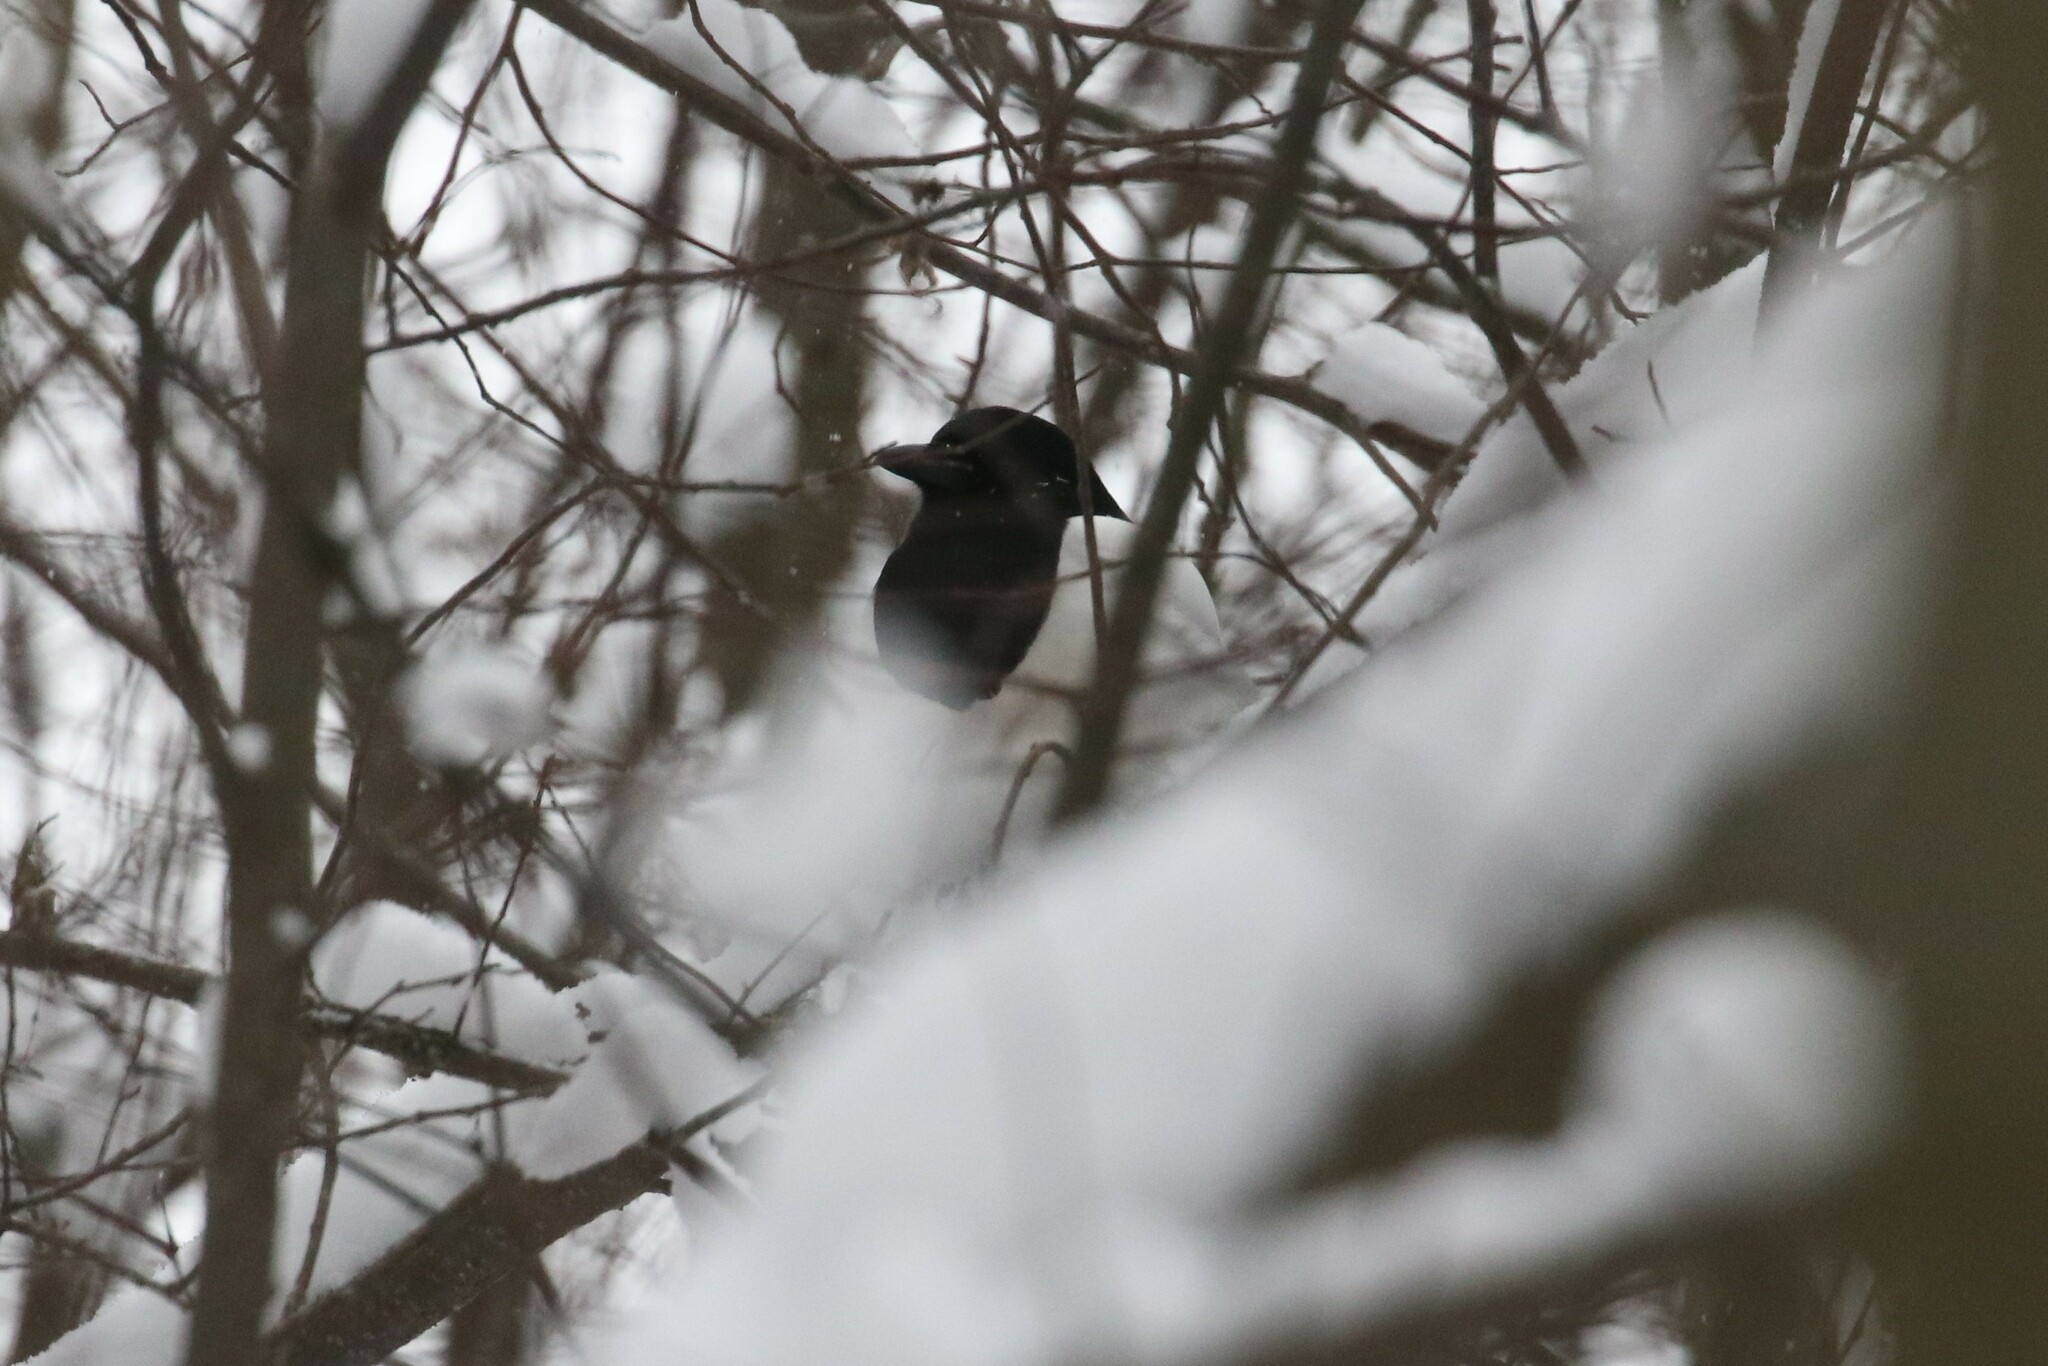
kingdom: Animalia
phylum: Chordata
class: Aves
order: Passeriformes
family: Corvidae
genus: Pica
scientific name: Pica pica
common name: Eurasian magpie
